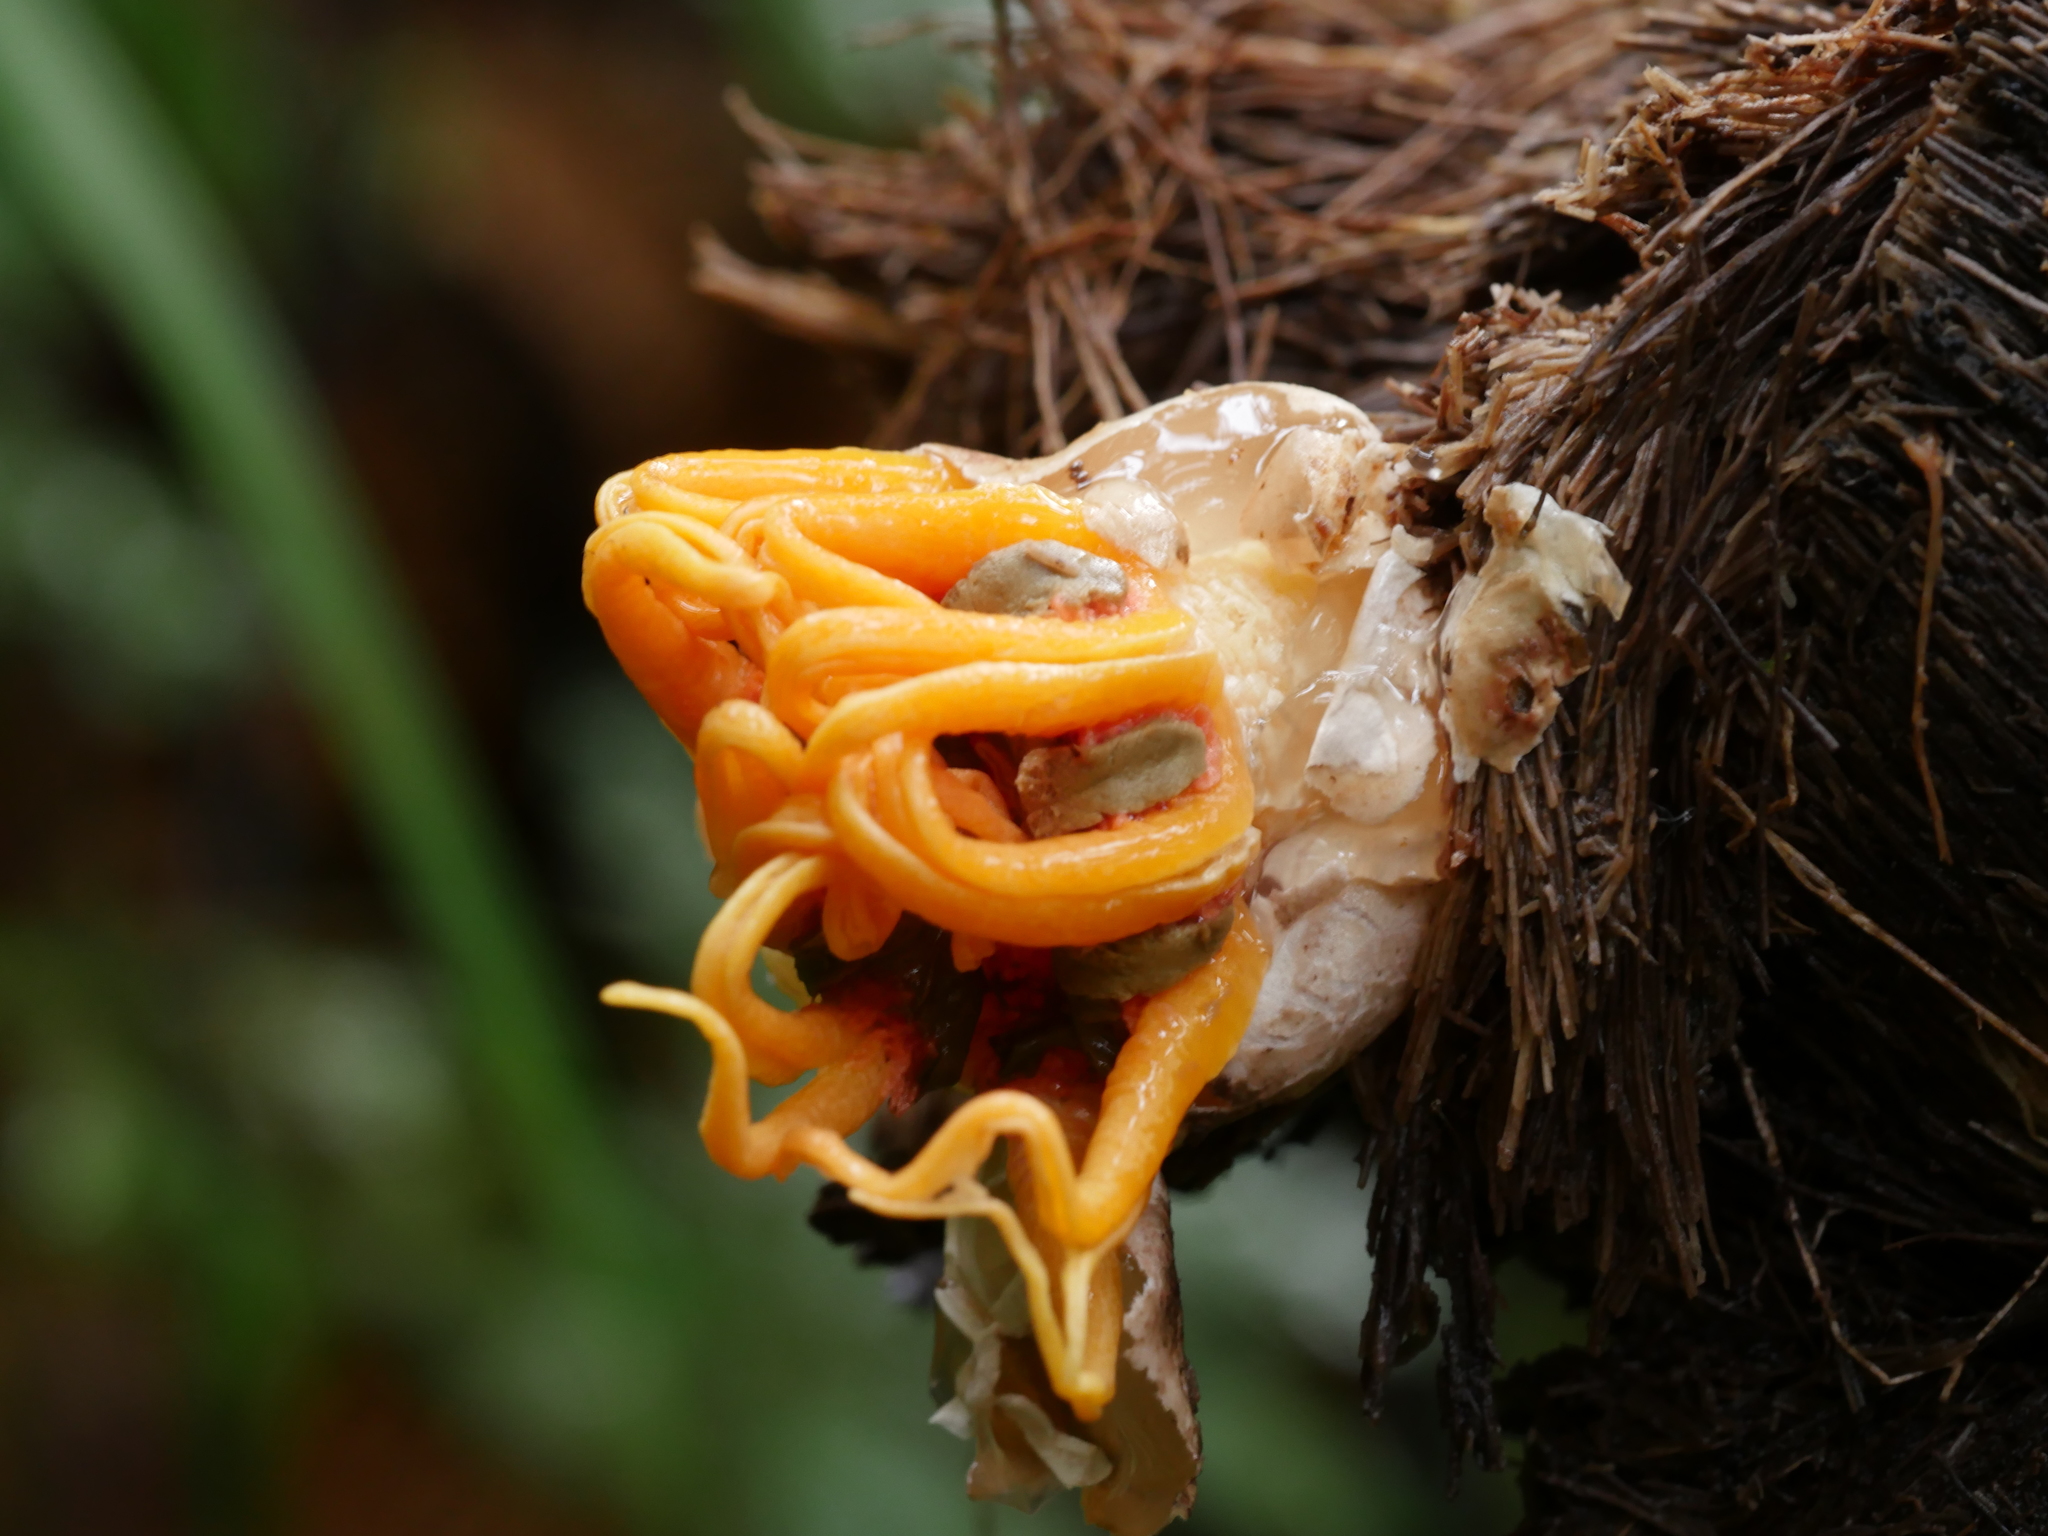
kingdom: Fungi
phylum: Basidiomycota
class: Agaricomycetes
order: Phallales
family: Phallaceae
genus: Aseroe
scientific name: Aseroe rubra
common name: Starfish fungus
